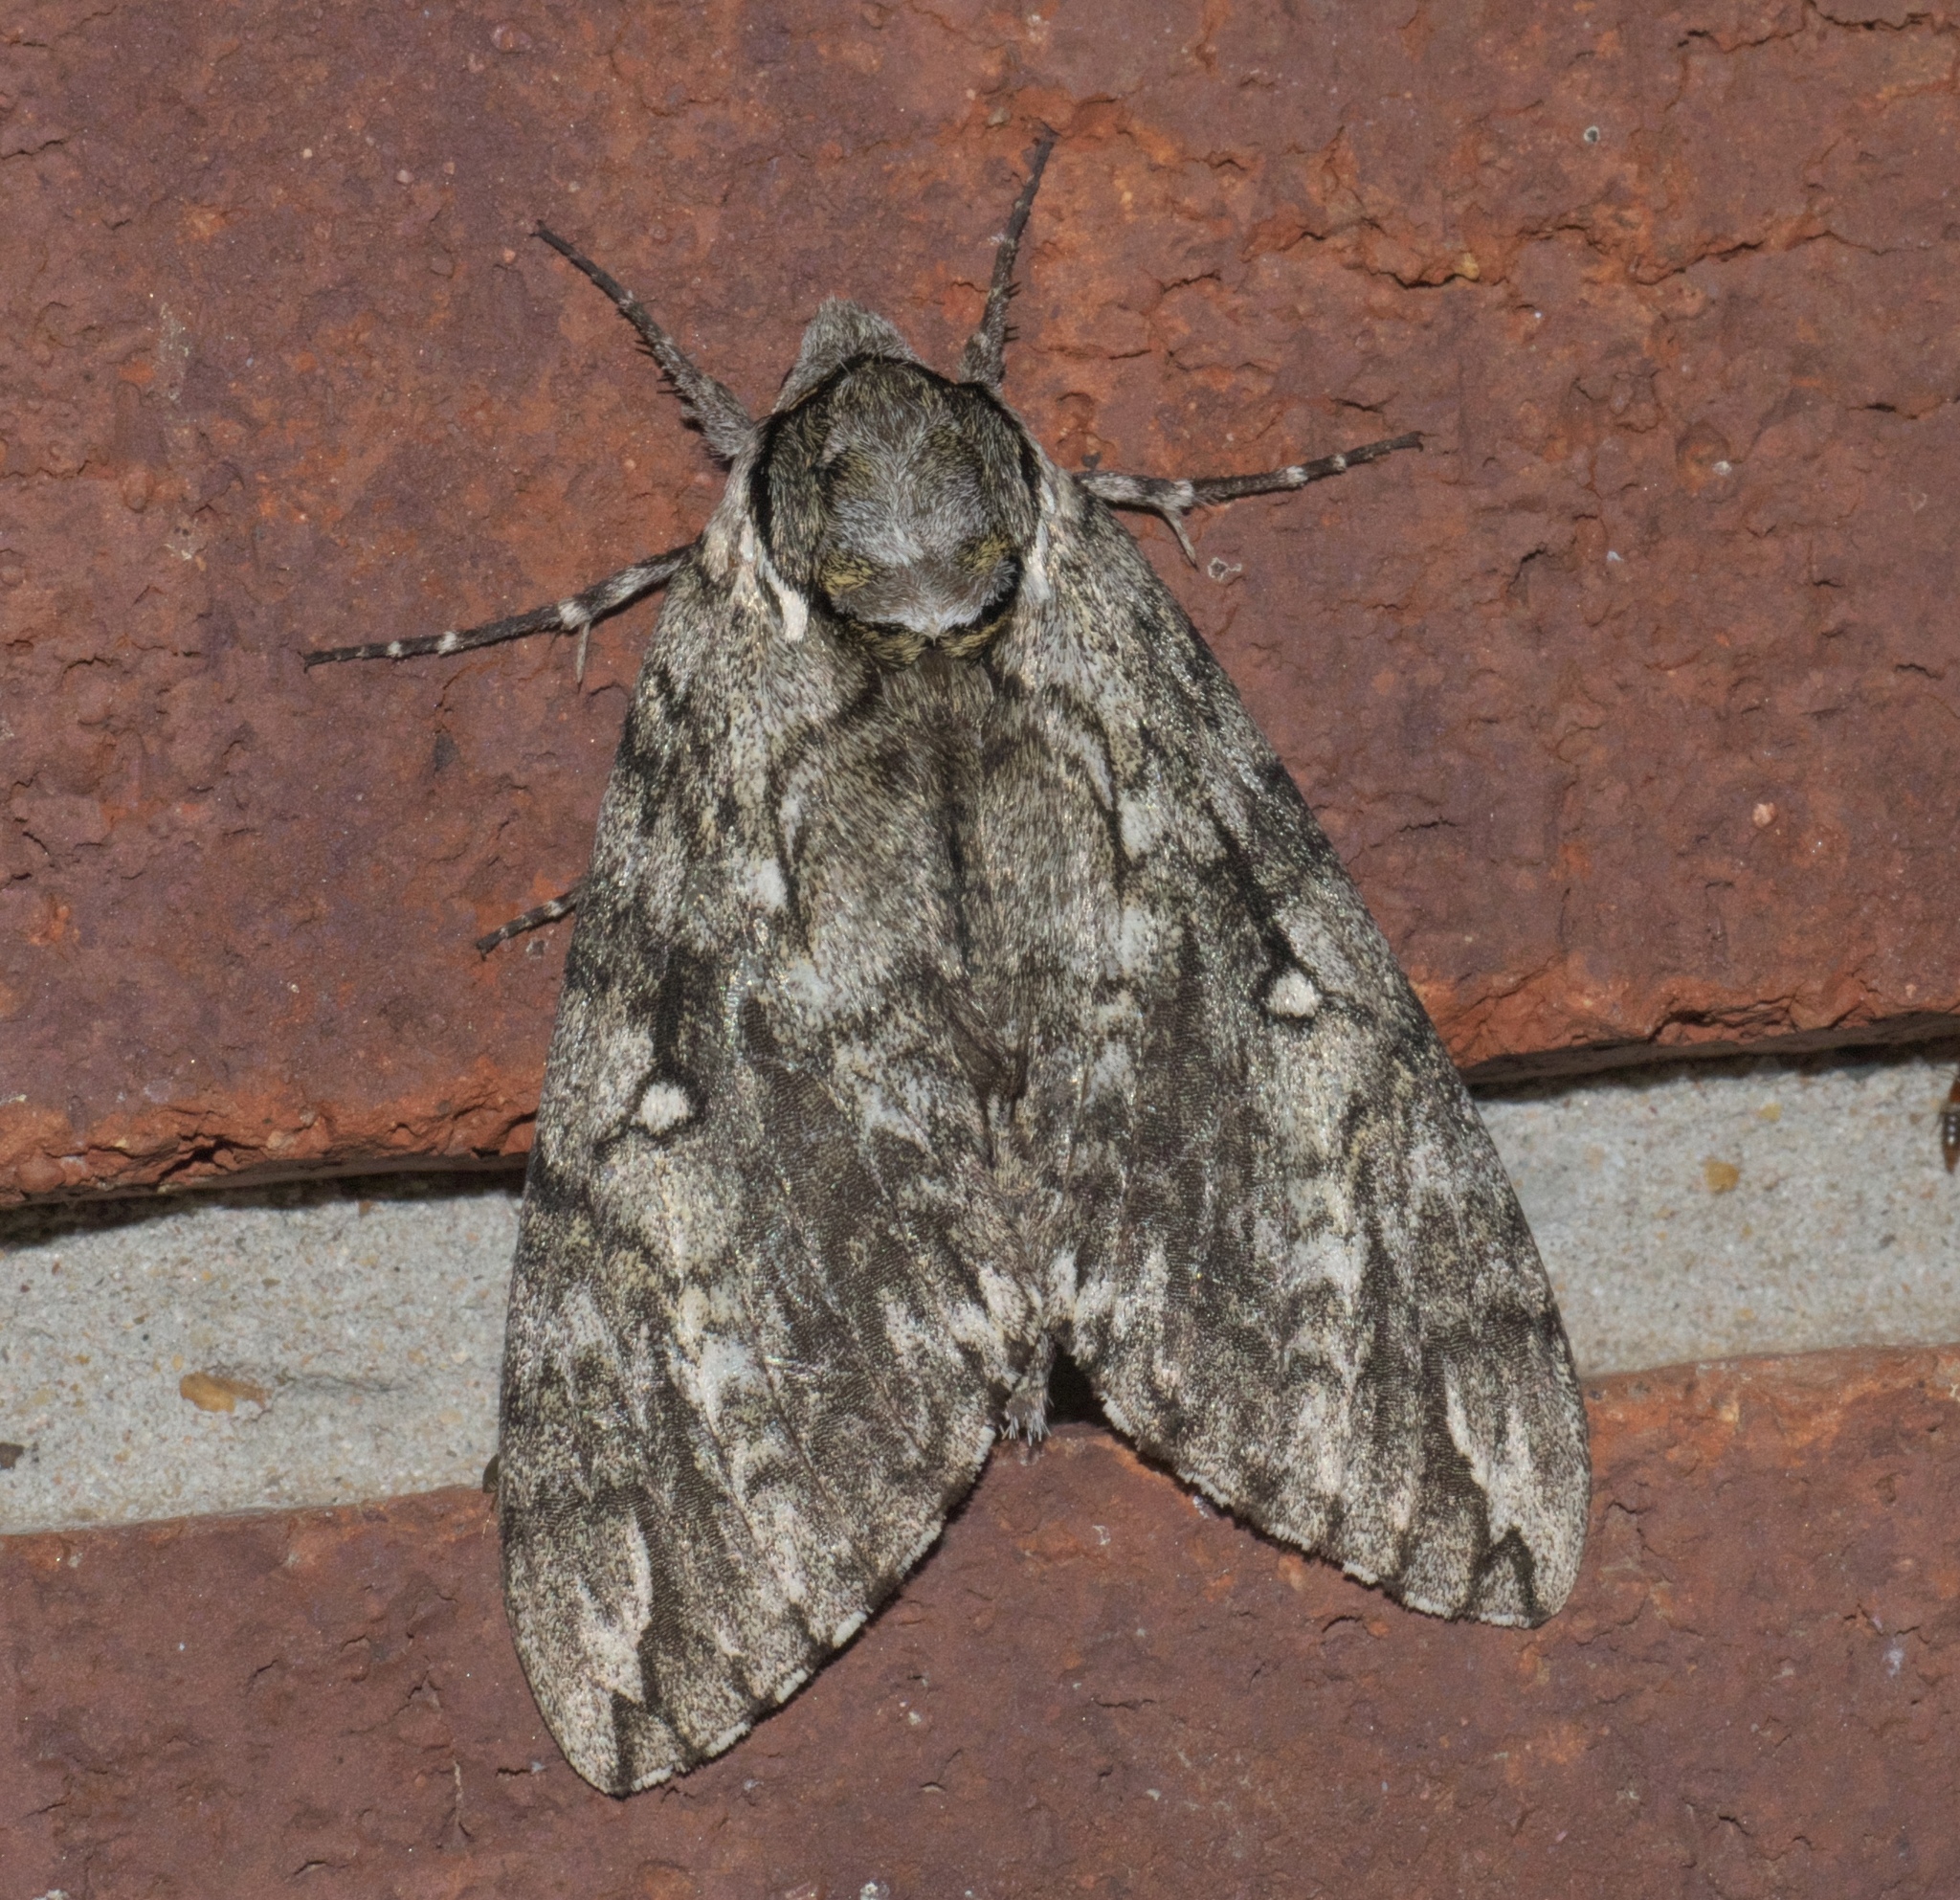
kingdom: Animalia
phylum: Arthropoda
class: Insecta
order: Lepidoptera
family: Sphingidae
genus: Ceratomia
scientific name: Ceratomia undulosa
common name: Waved sphinx
